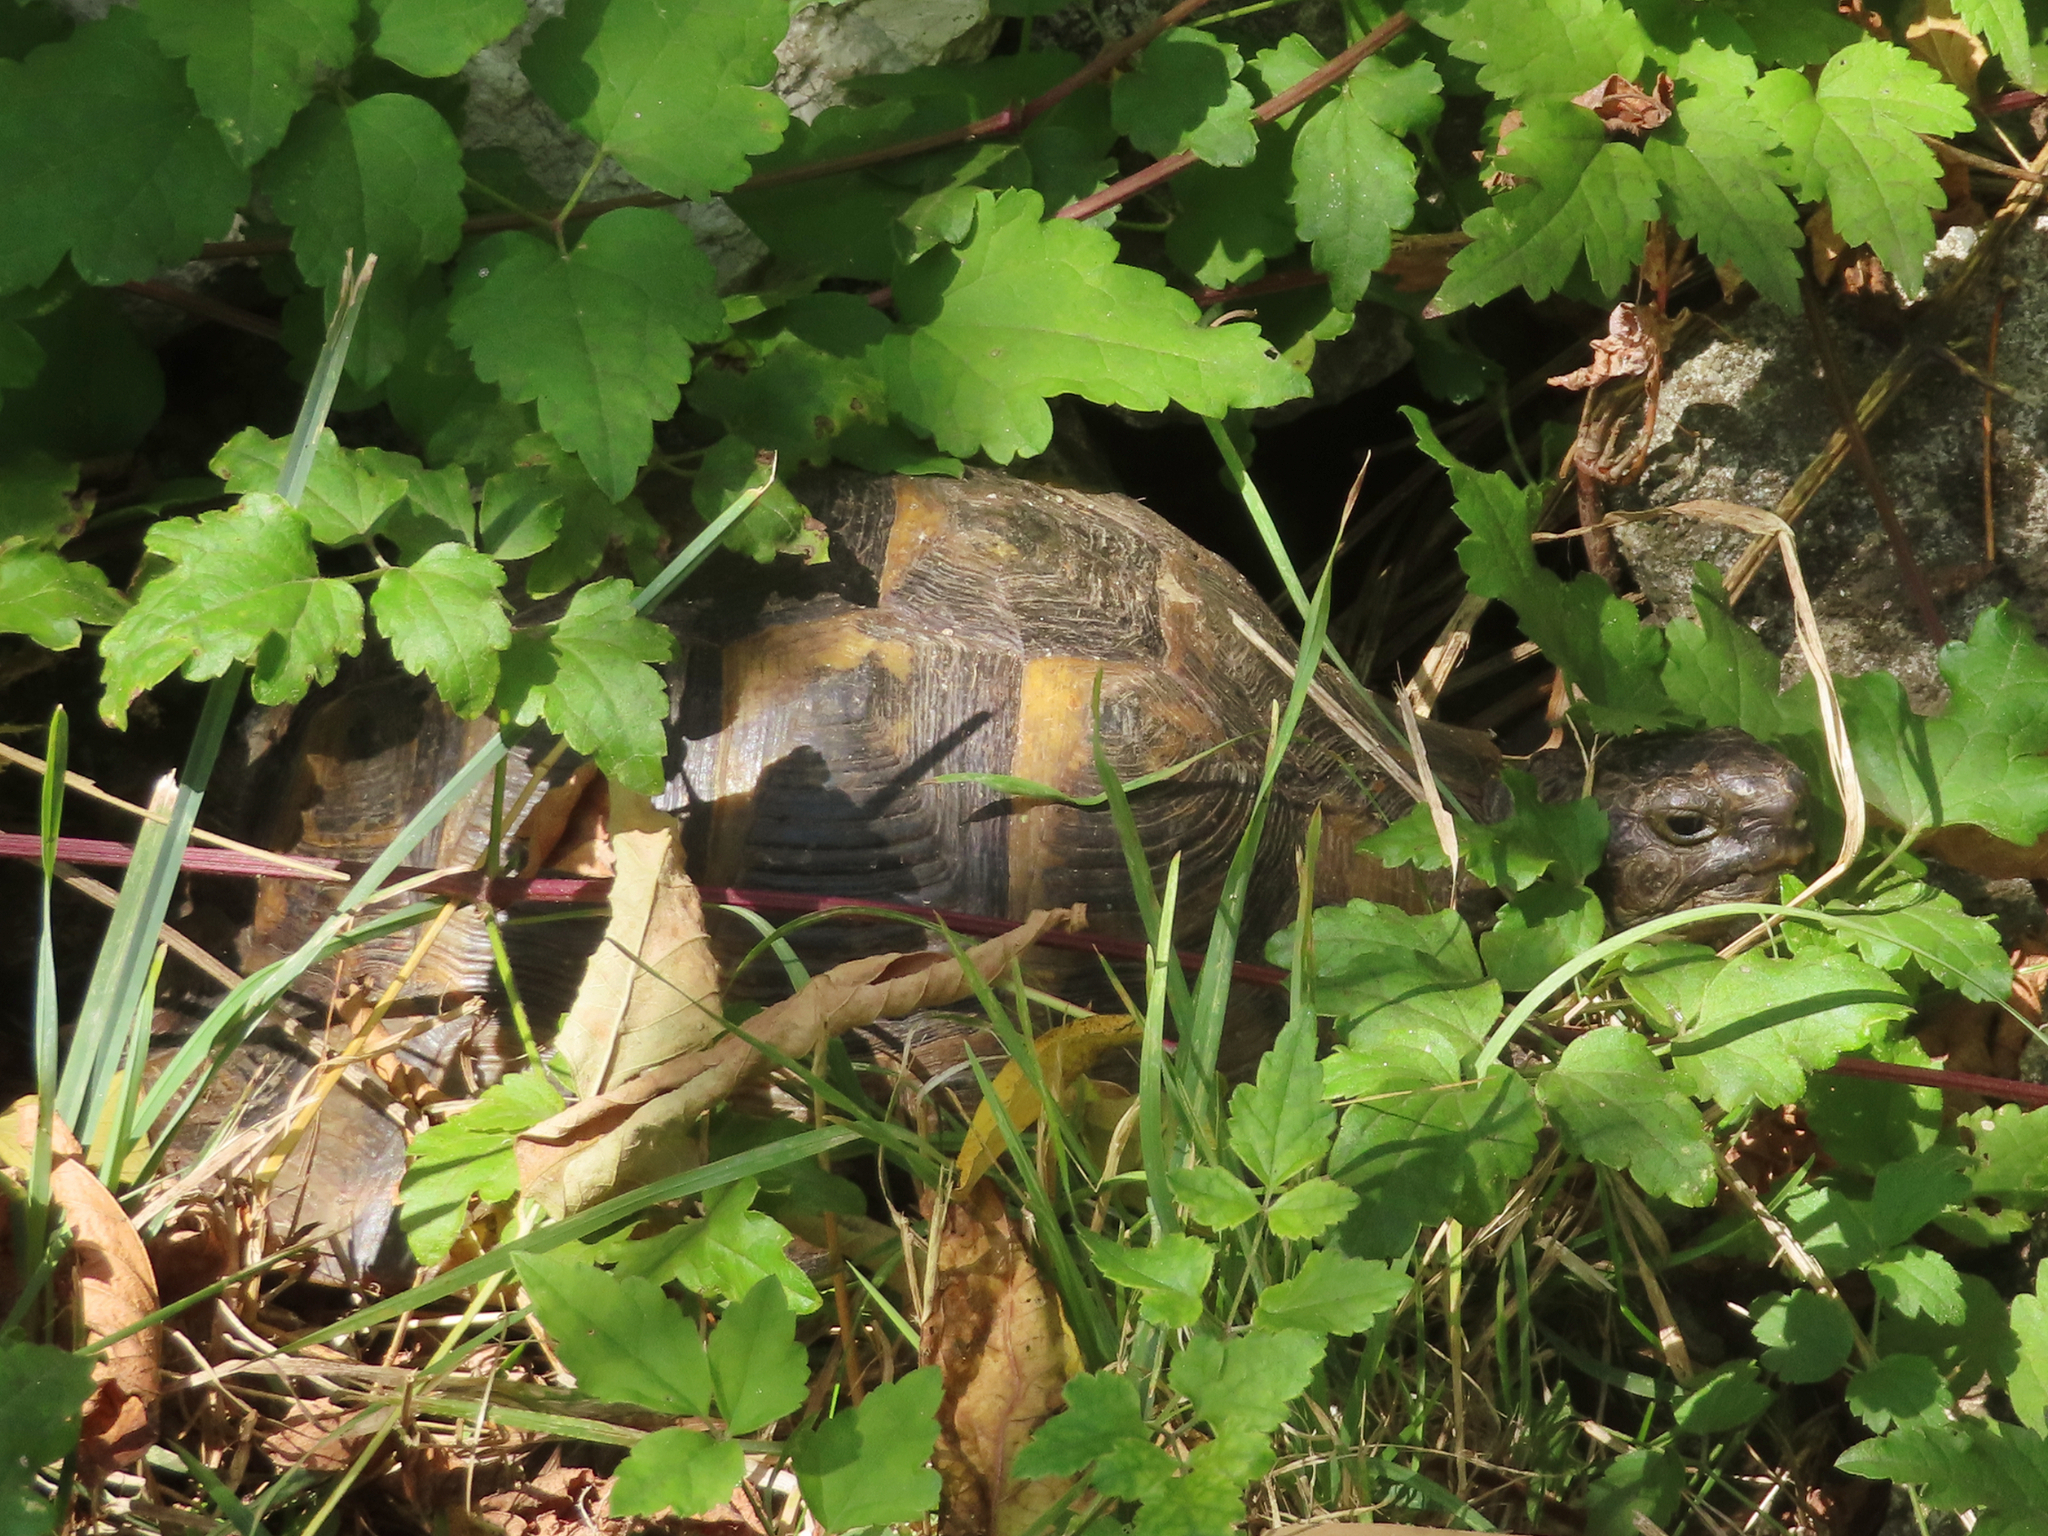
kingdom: Animalia
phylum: Chordata
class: Testudines
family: Testudinidae
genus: Testudo
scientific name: Testudo graeca
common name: Common tortoise
